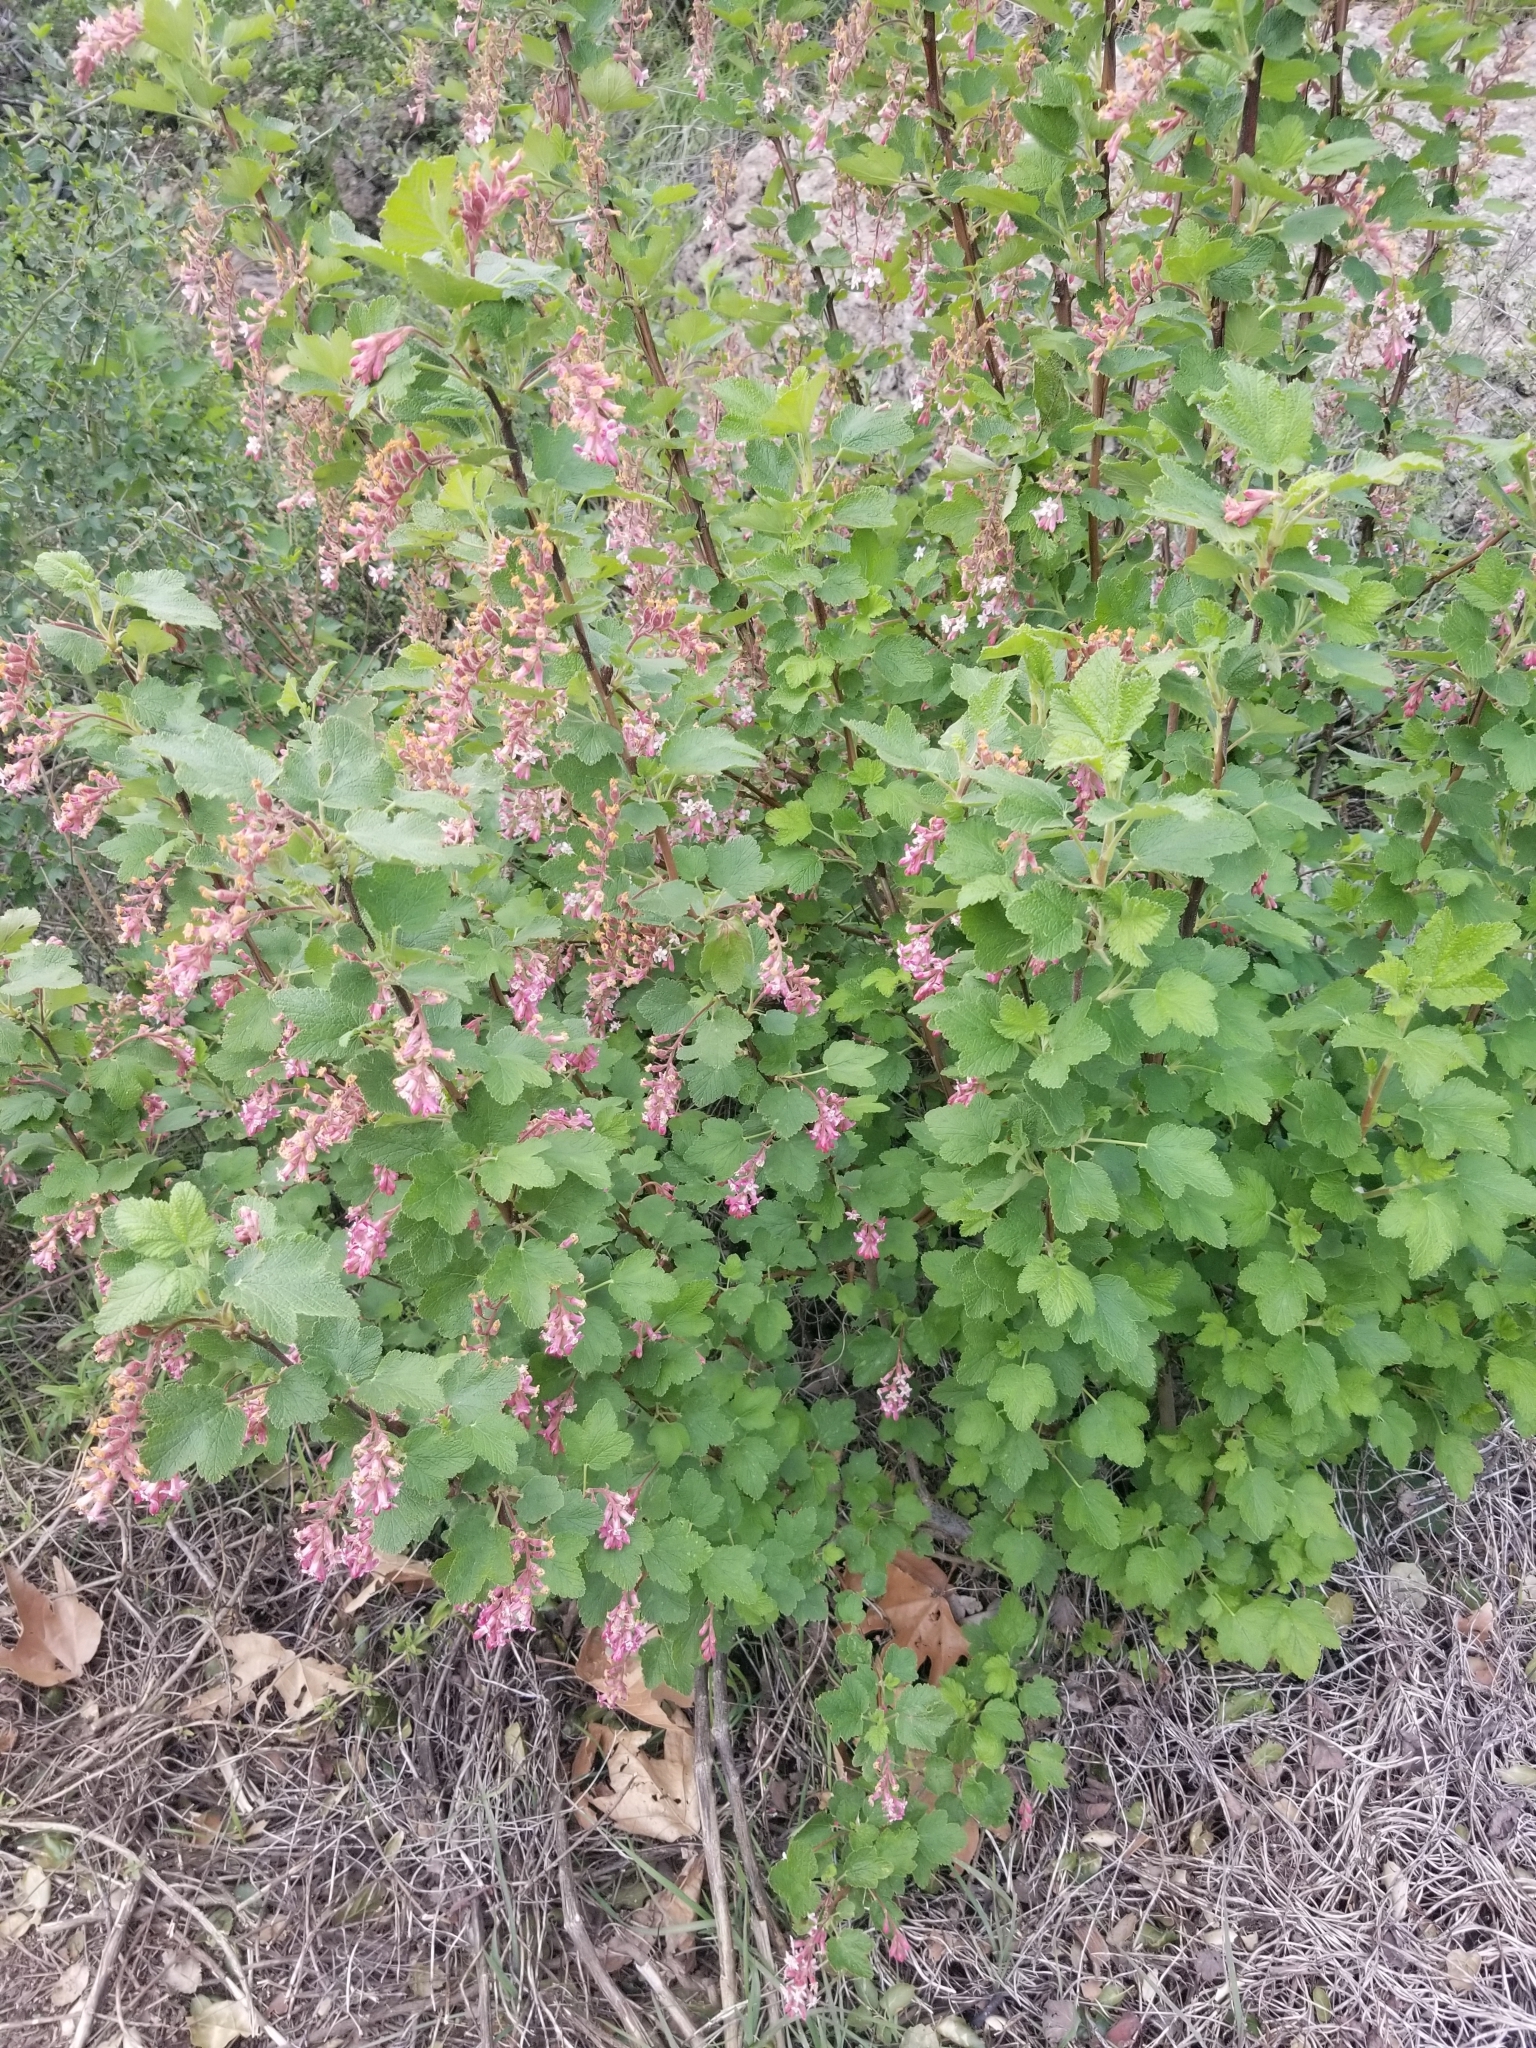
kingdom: Plantae
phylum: Tracheophyta
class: Magnoliopsida
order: Saxifragales
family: Grossulariaceae
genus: Ribes
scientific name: Ribes malvaceum
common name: Chaparral currant
